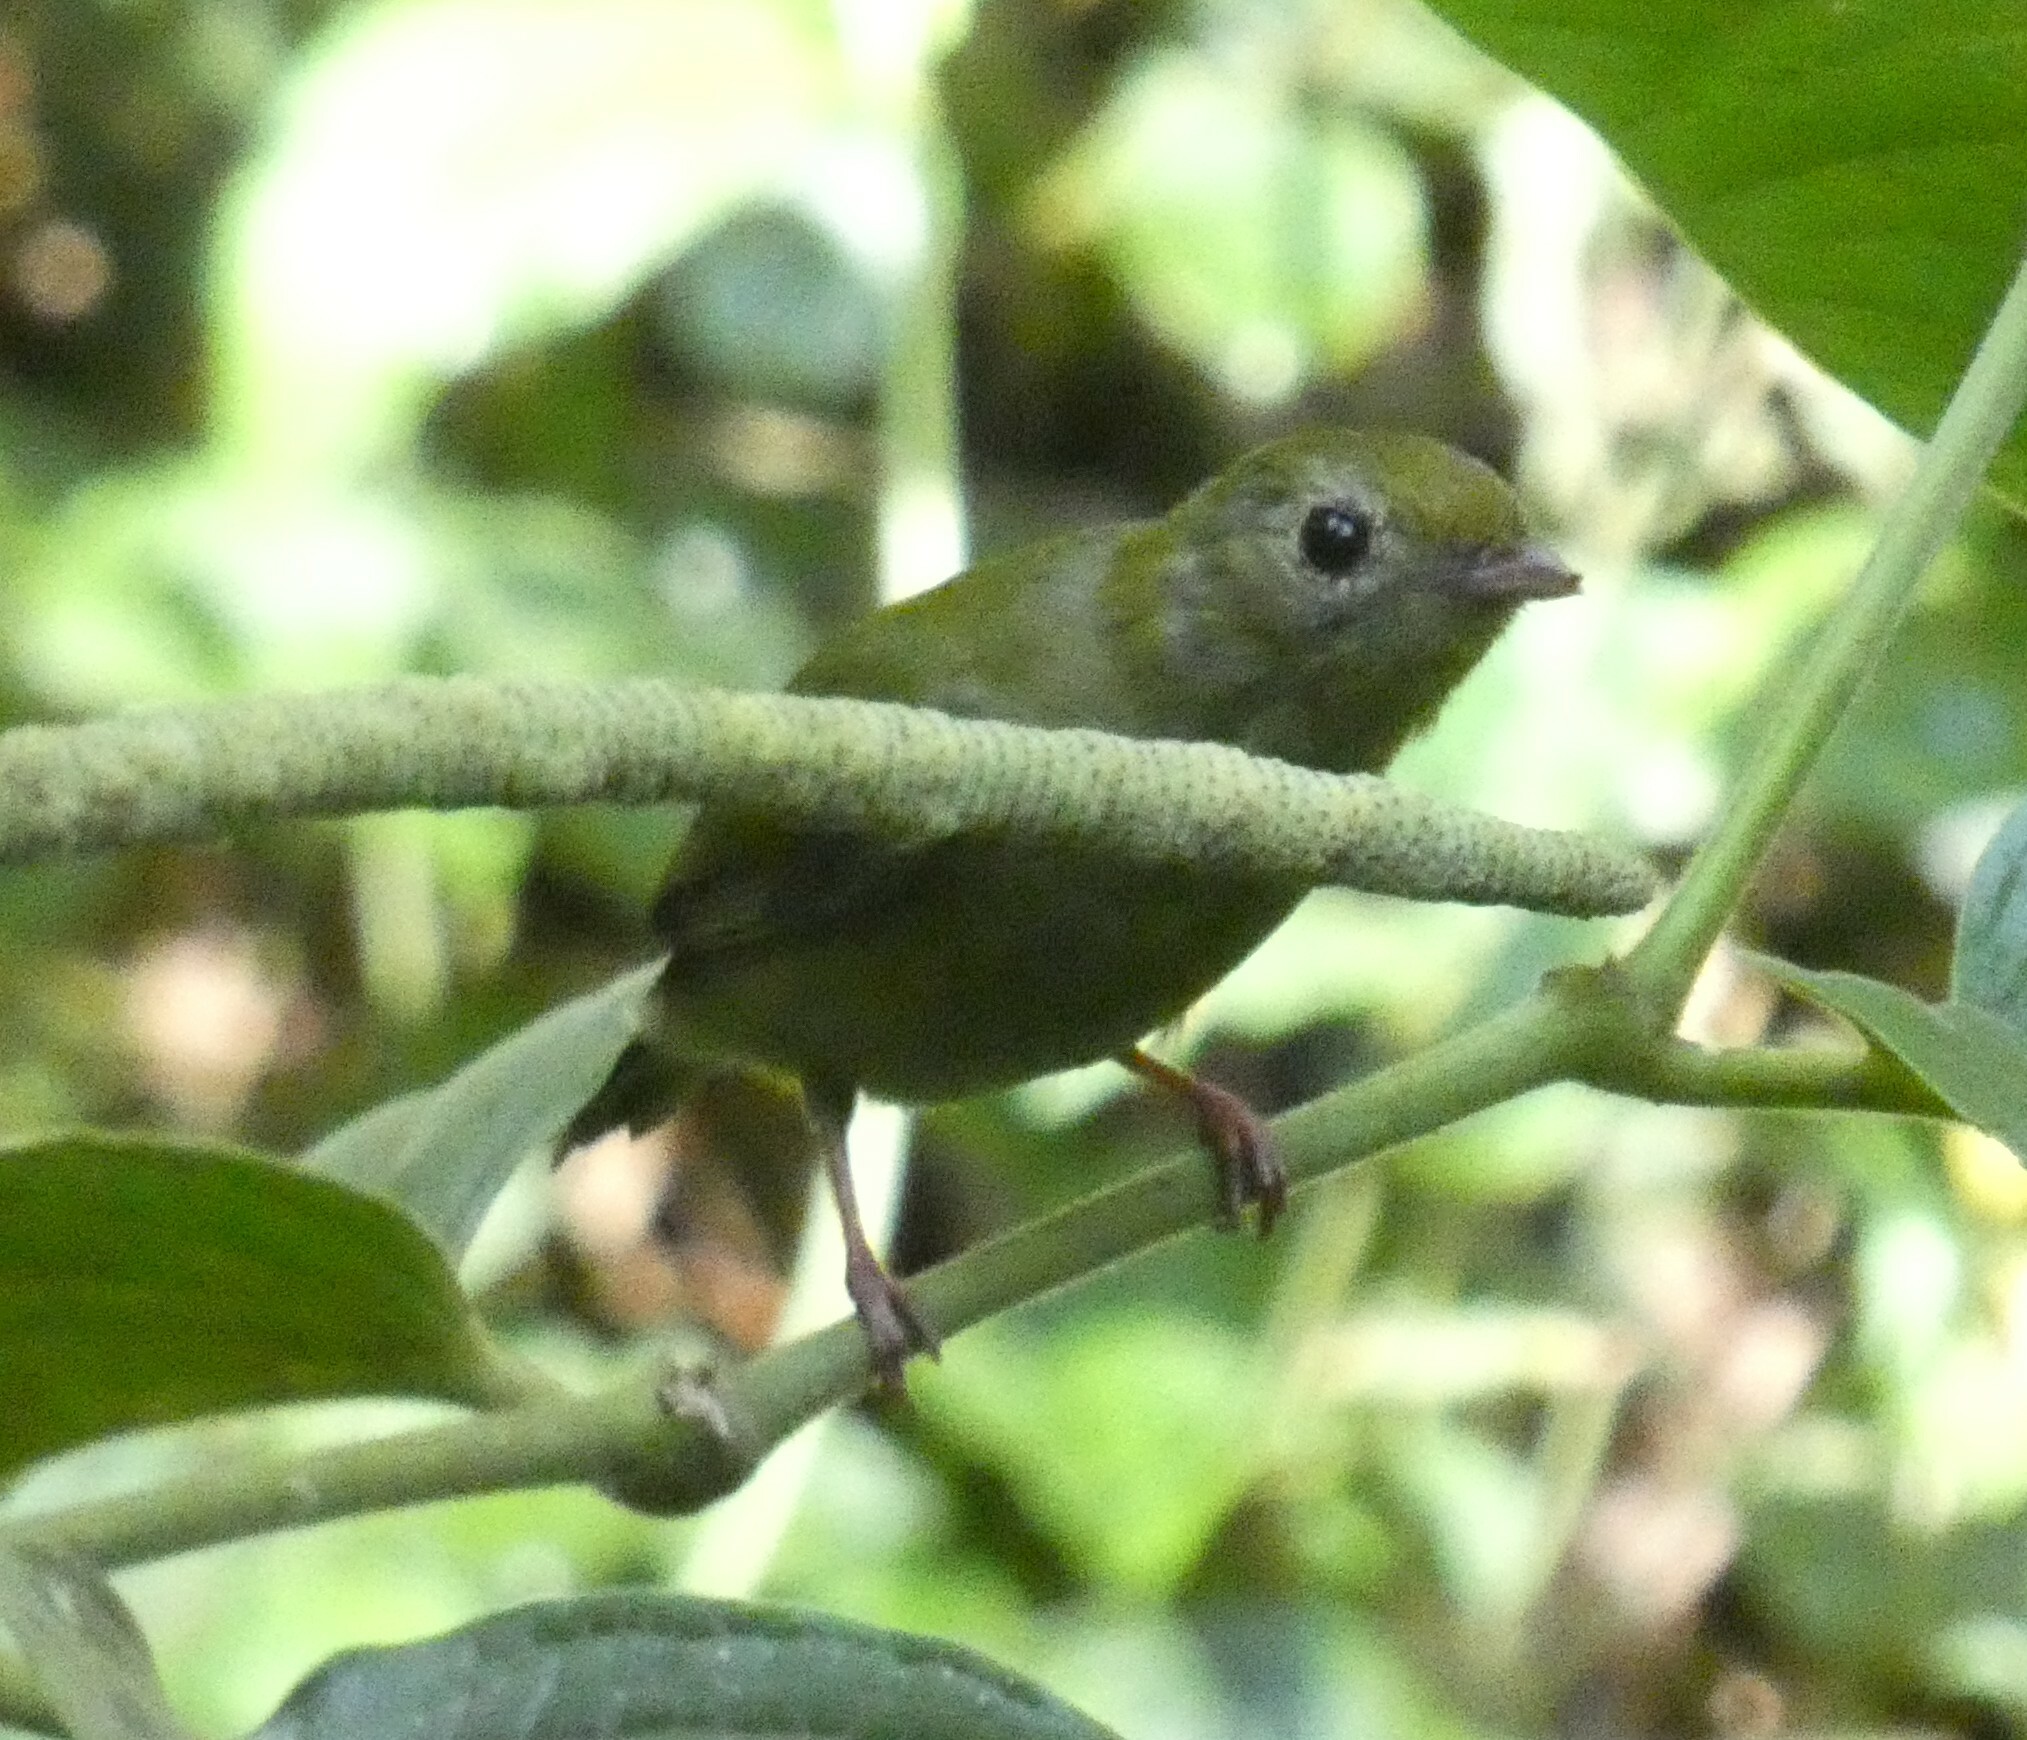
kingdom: Animalia
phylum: Chordata
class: Aves
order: Passeriformes
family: Pipridae
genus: Chiroxiphia
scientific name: Chiroxiphia caudata
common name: Blue manakin
